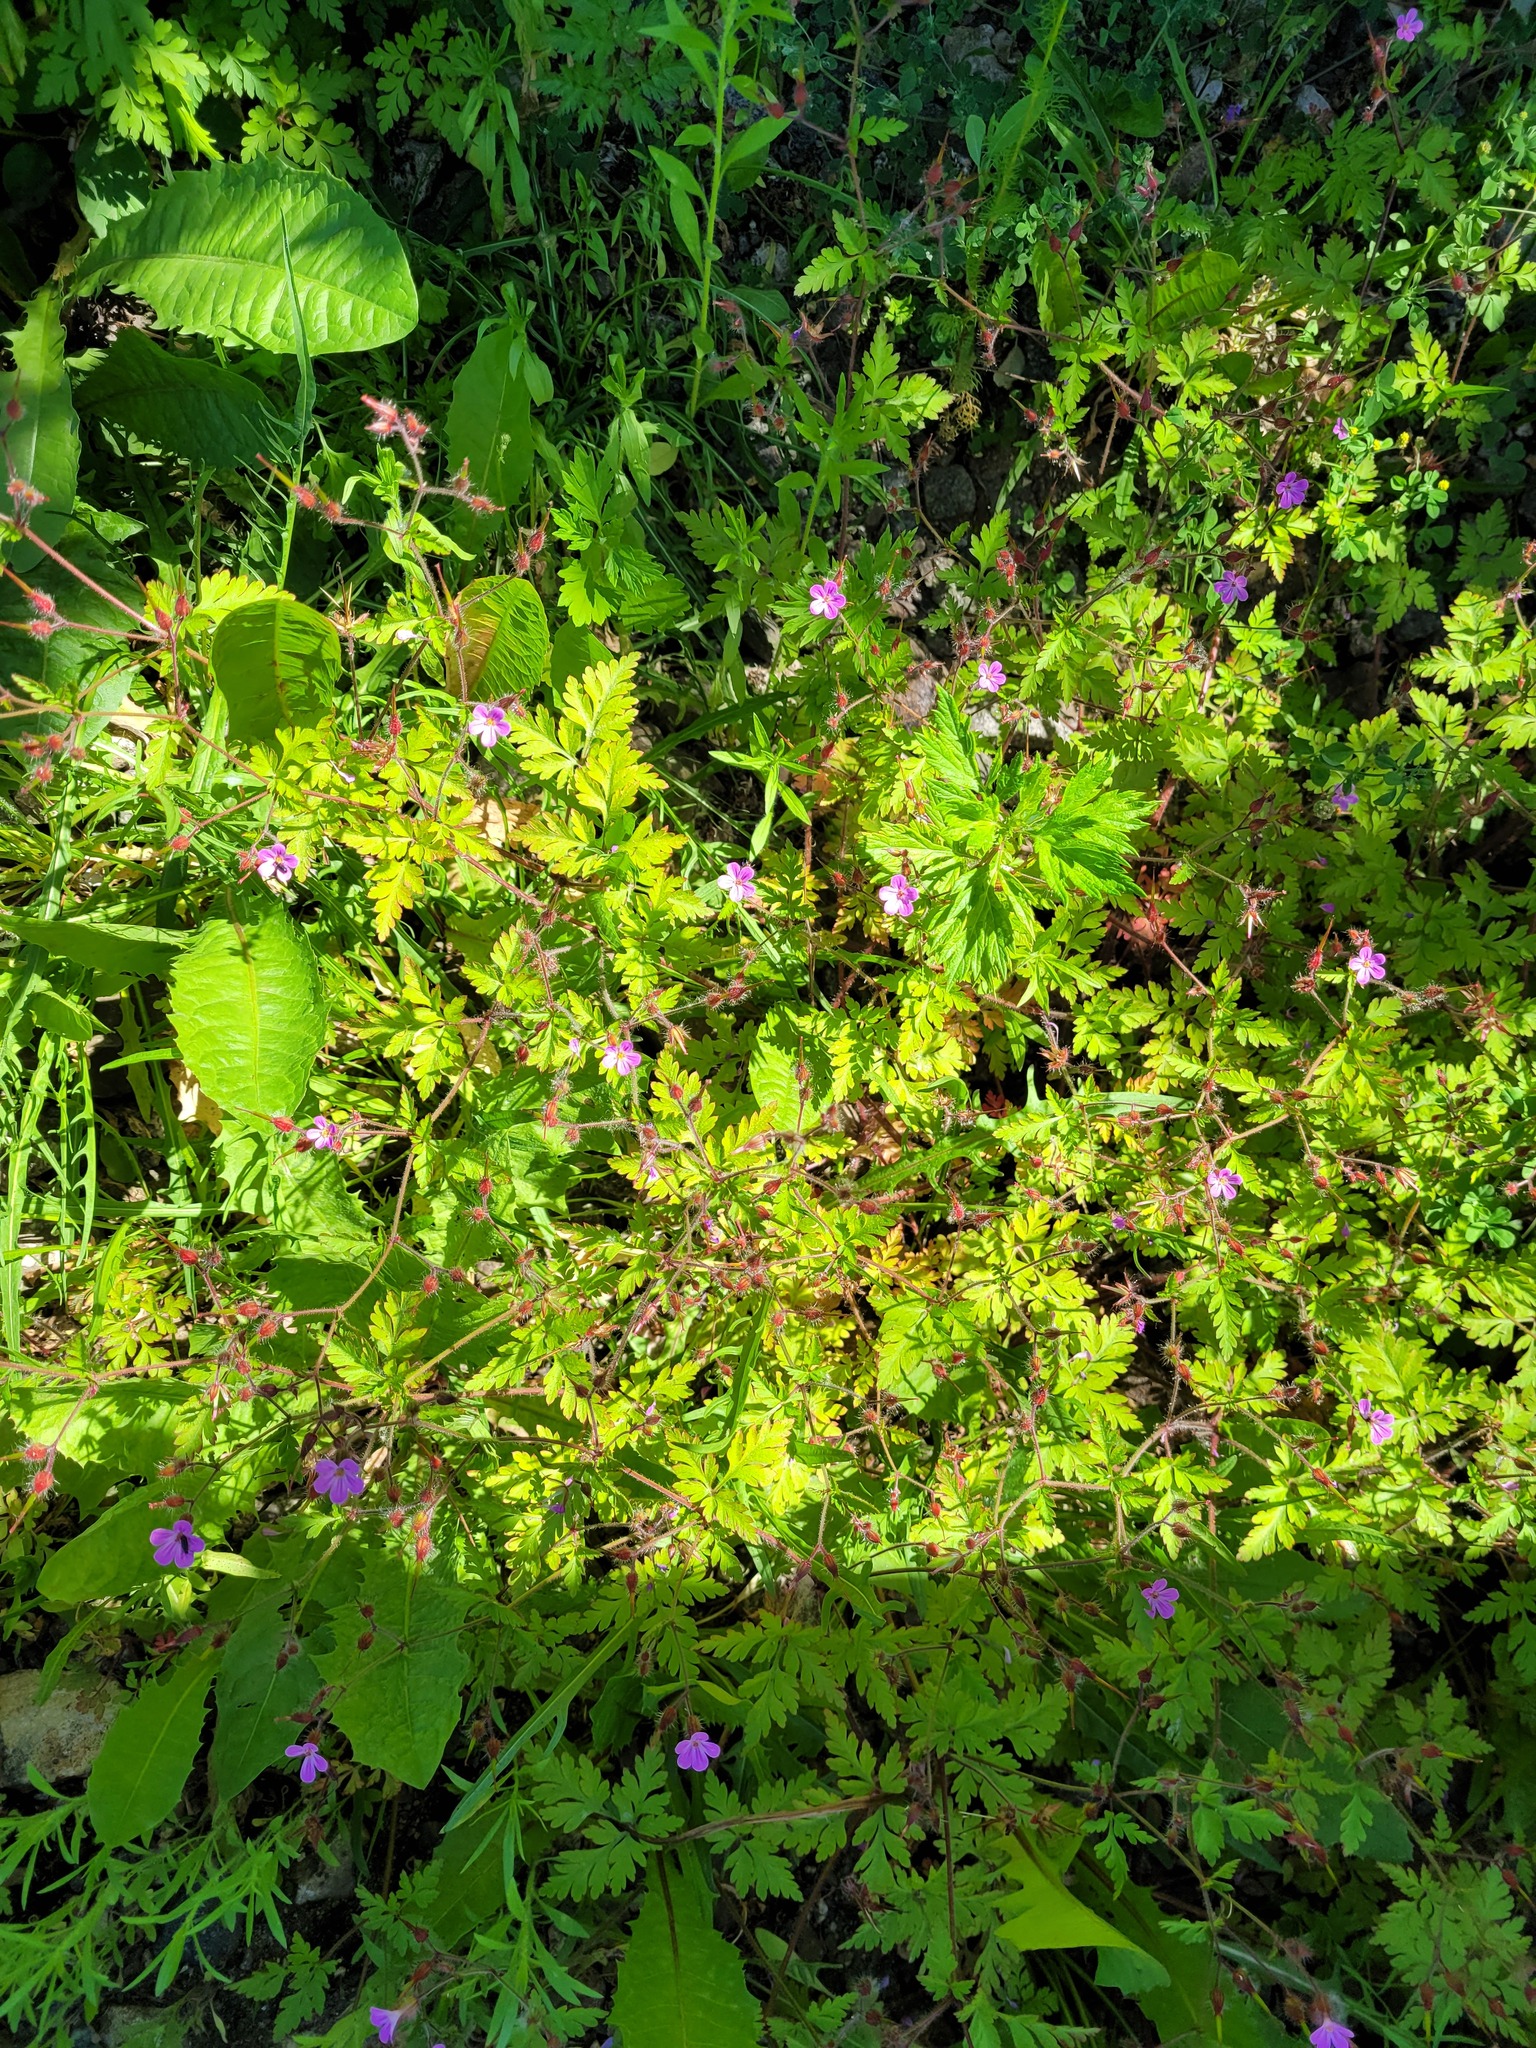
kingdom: Plantae
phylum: Tracheophyta
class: Magnoliopsida
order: Geraniales
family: Geraniaceae
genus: Geranium
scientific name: Geranium robertianum
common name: Herb-robert
